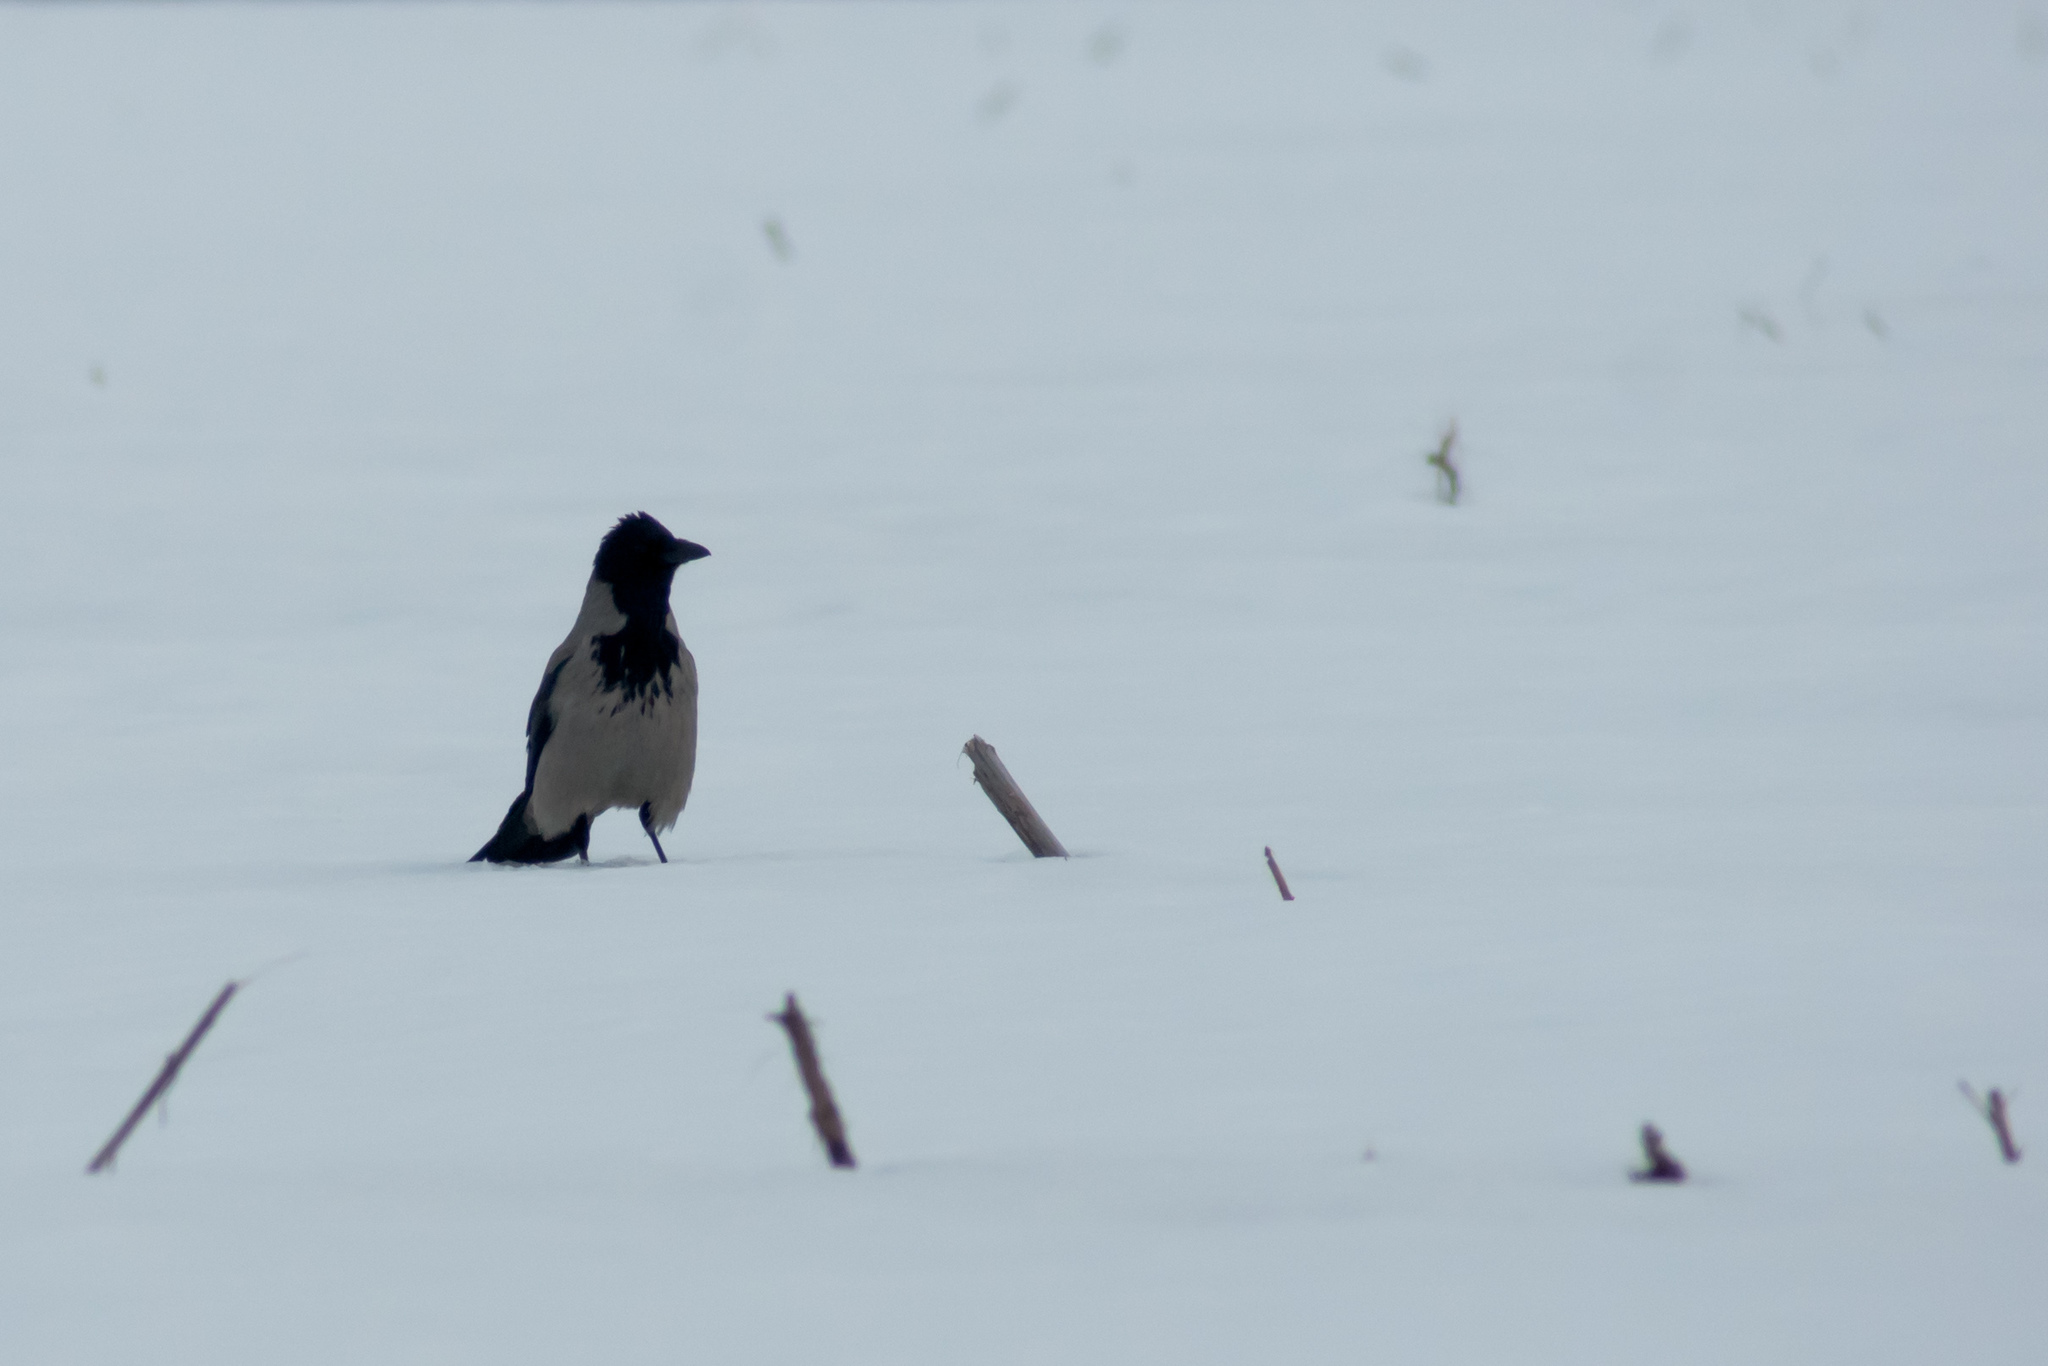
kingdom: Animalia
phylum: Chordata
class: Aves
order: Passeriformes
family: Corvidae
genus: Corvus
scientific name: Corvus cornix
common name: Hooded crow
